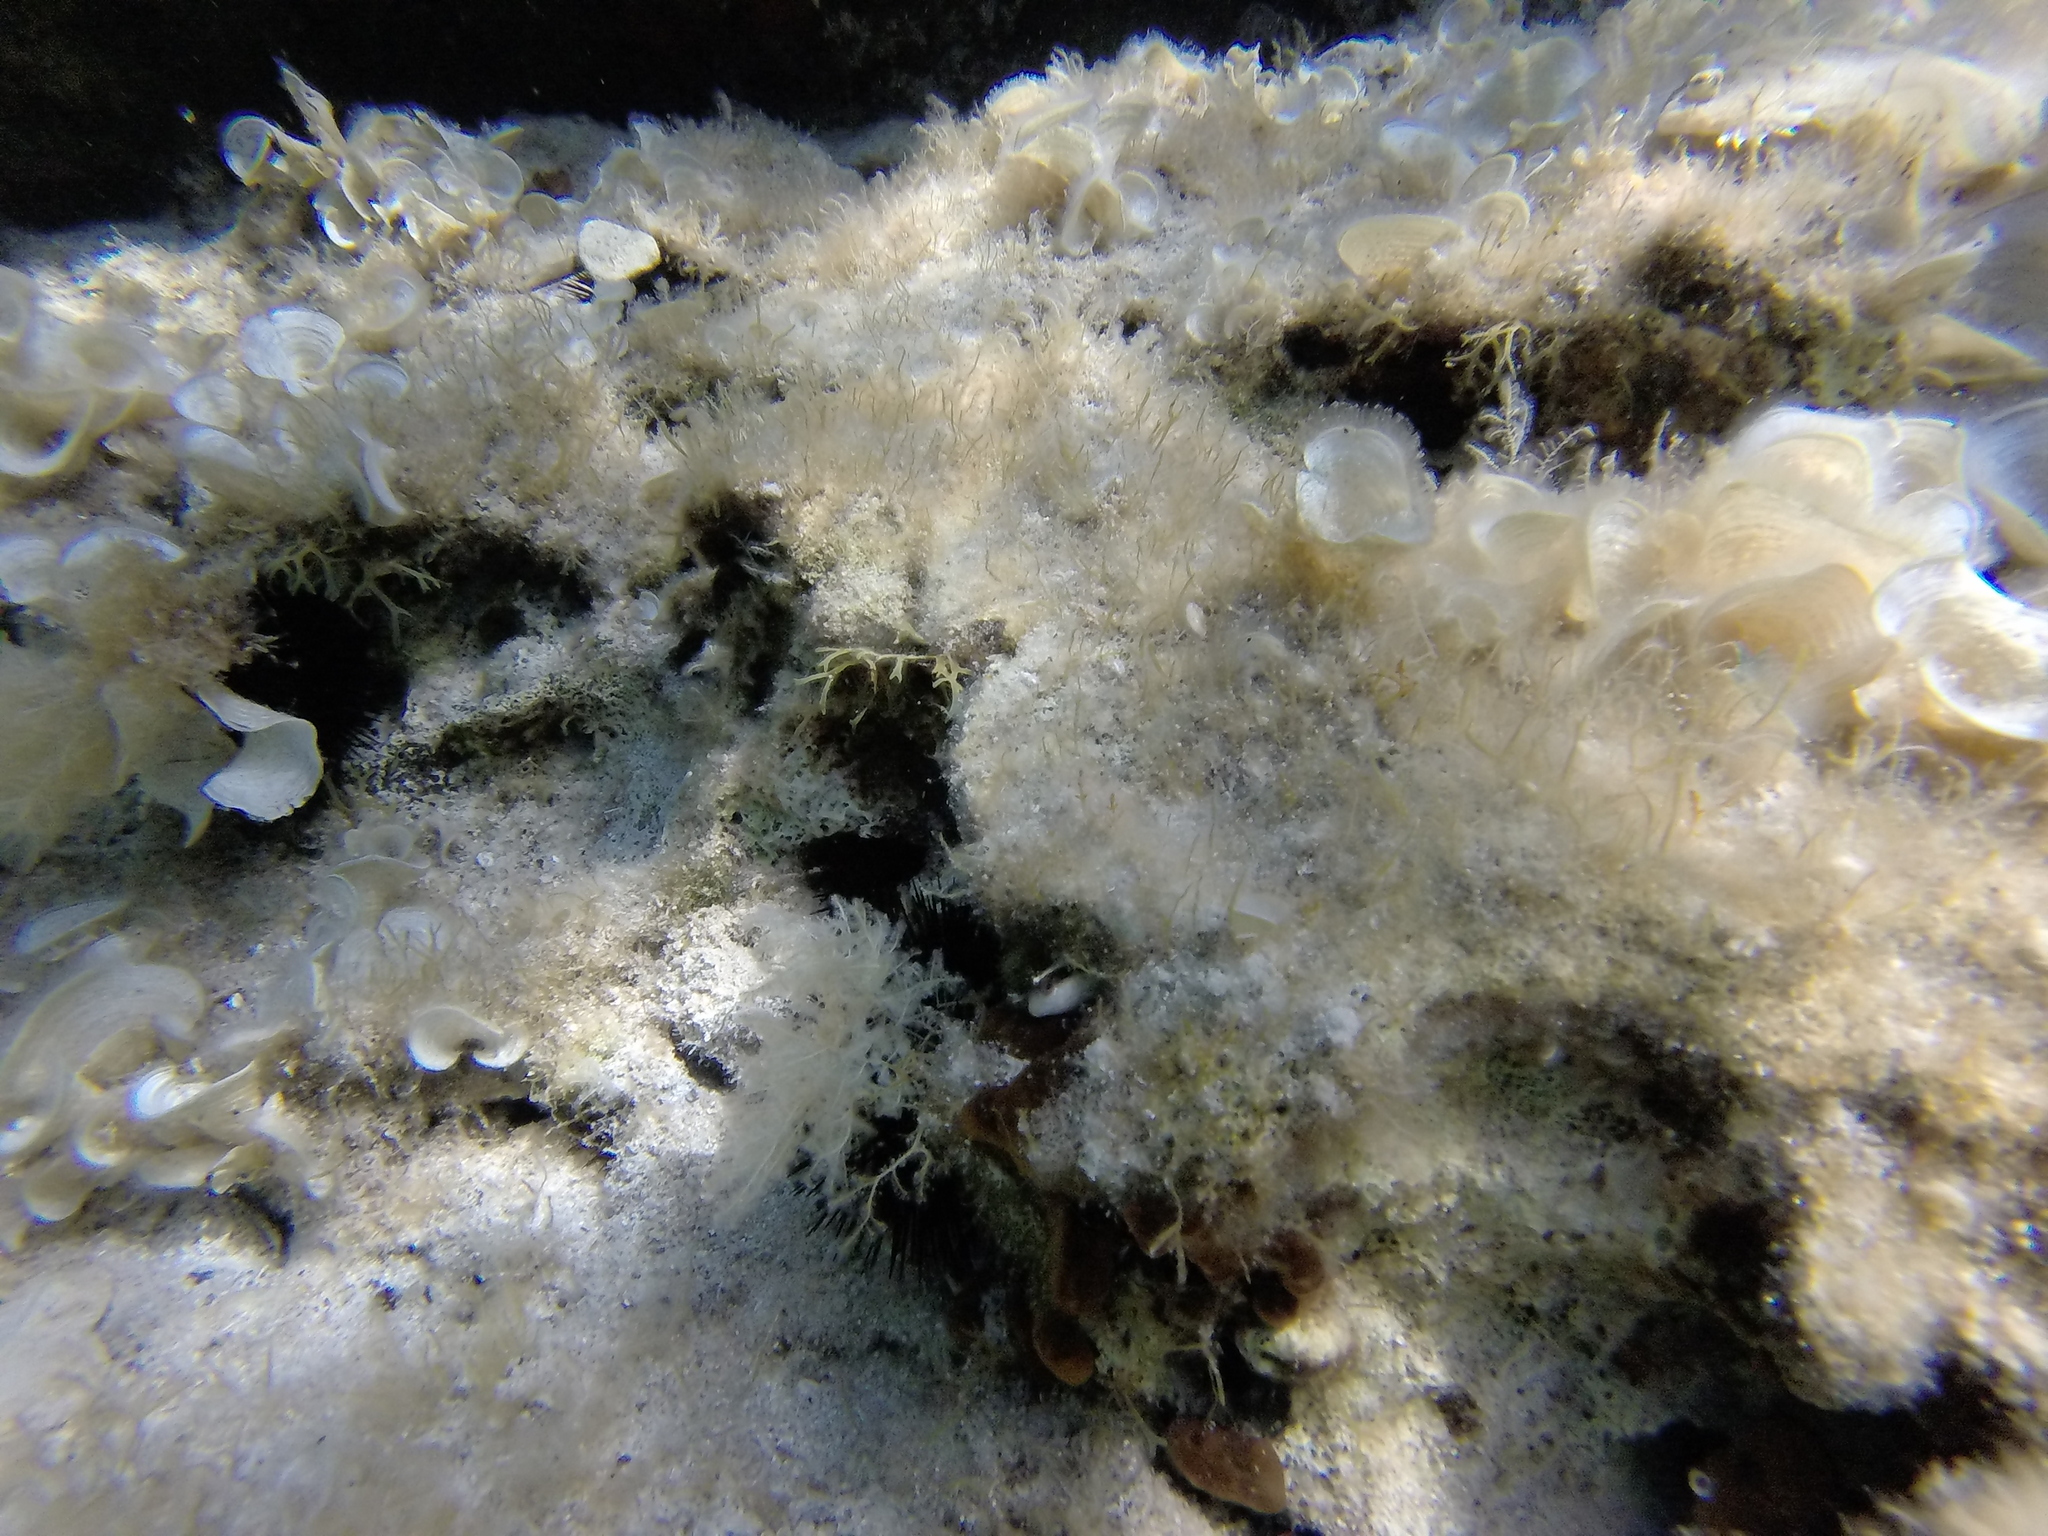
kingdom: Animalia
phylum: Chordata
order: Perciformes
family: Blenniidae
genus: Parablennius
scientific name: Parablennius rouxi
